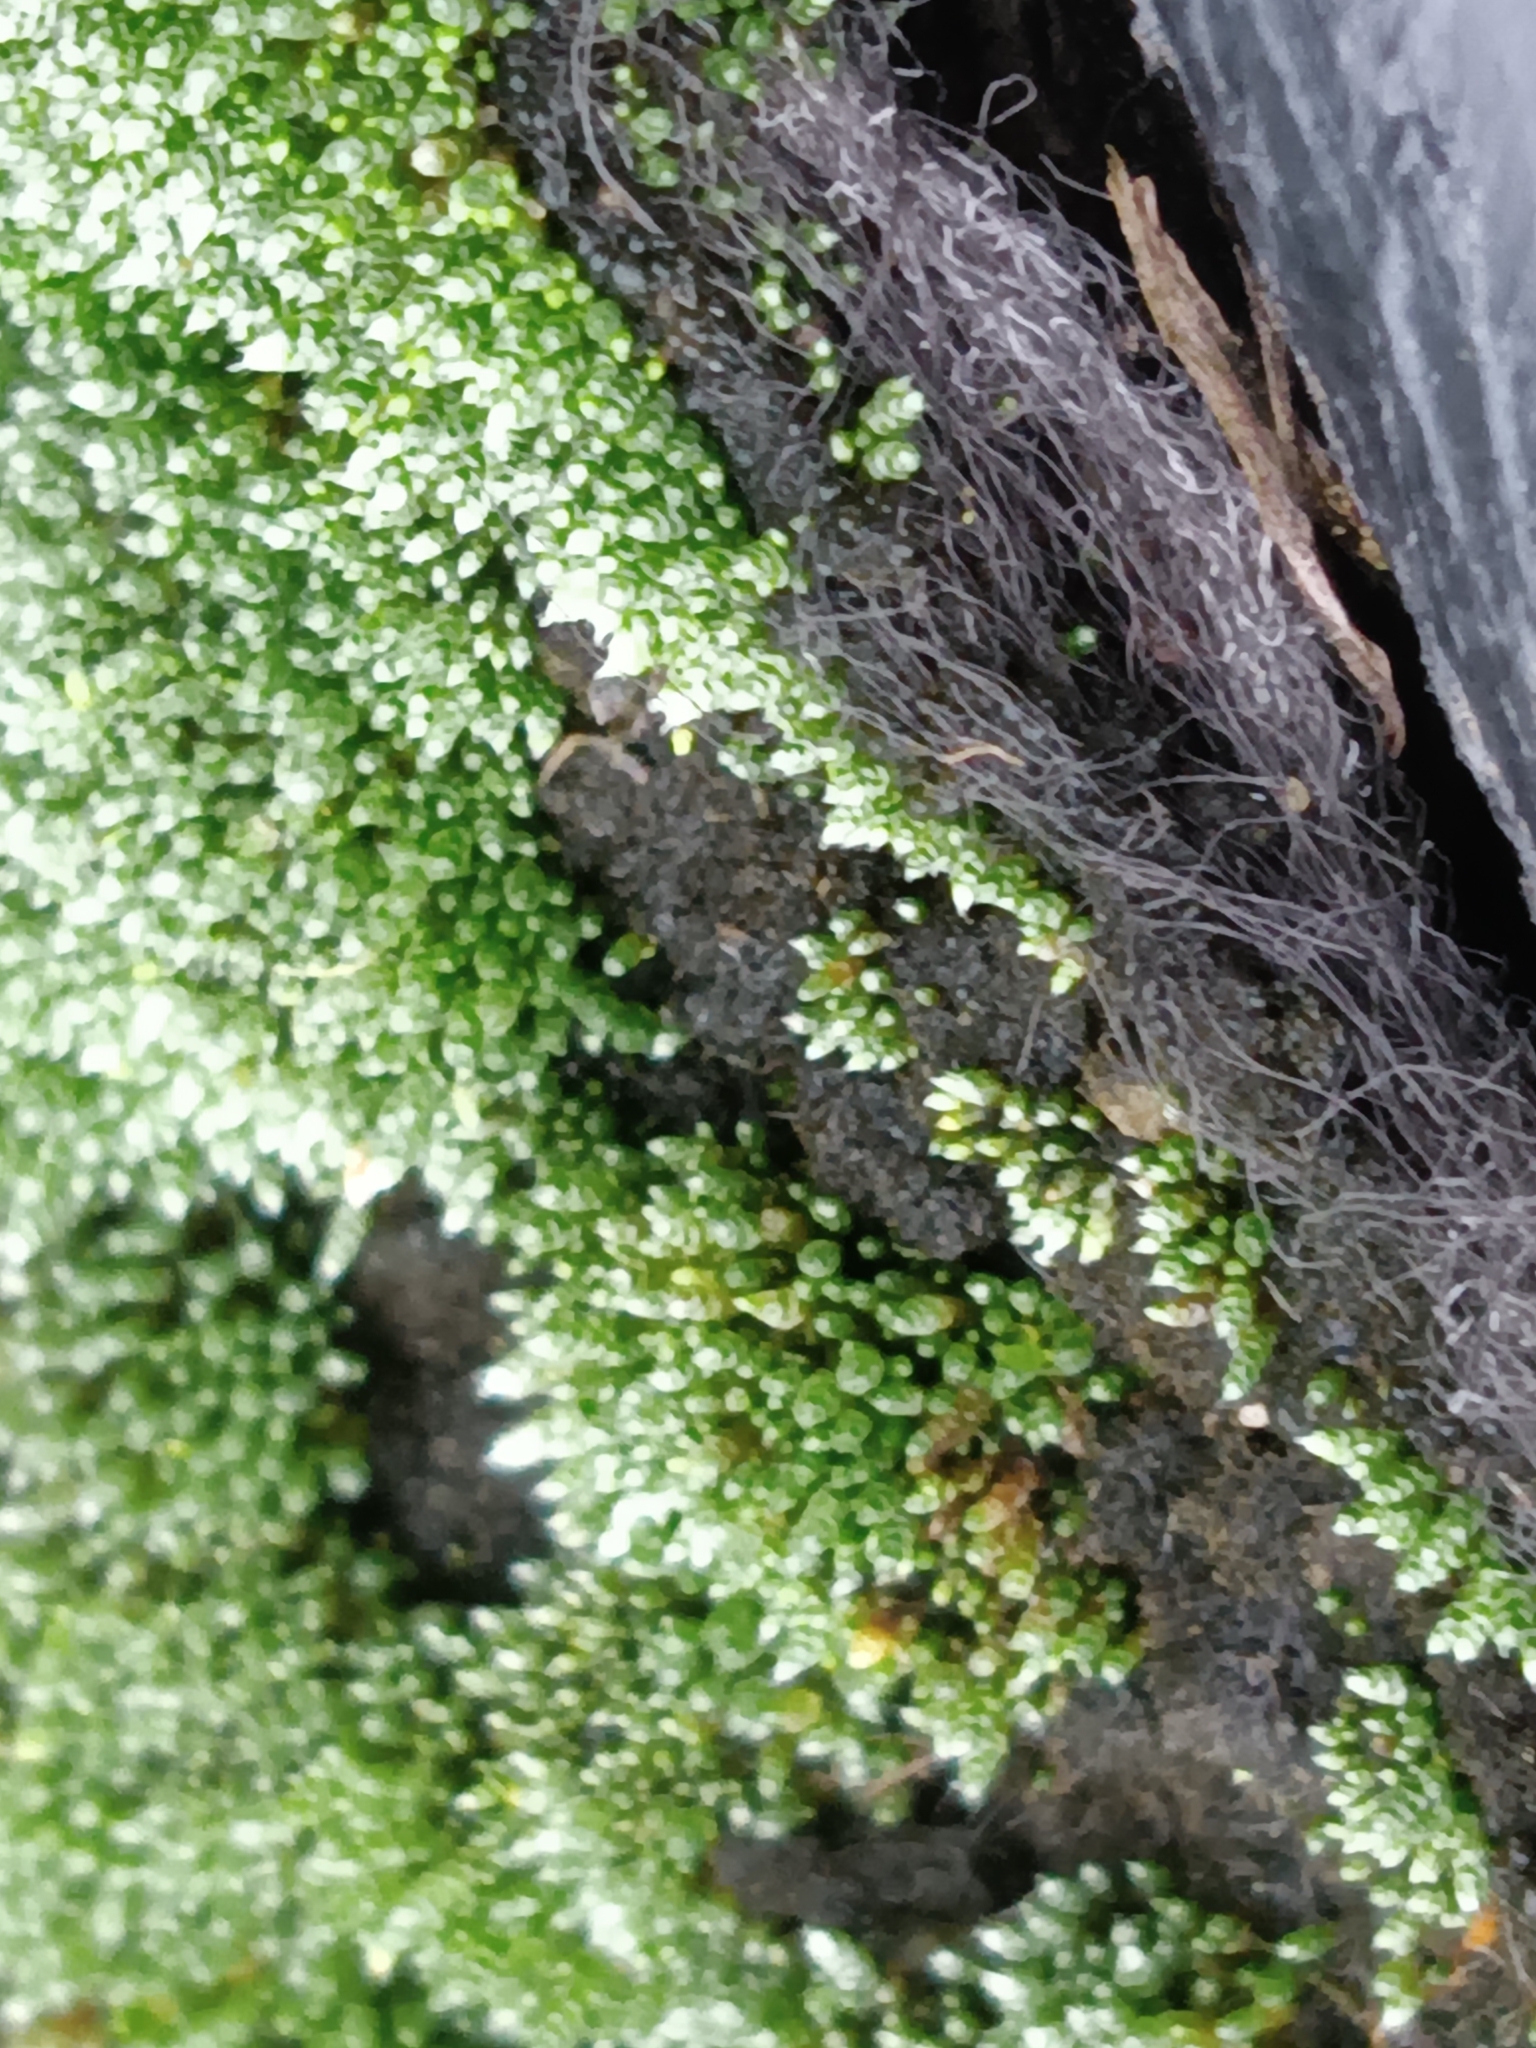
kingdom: Plantae
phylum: Bryophyta
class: Bryopsida
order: Bryales
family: Bryaceae
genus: Bryum
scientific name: Bryum argenteum
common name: Silver-moss
